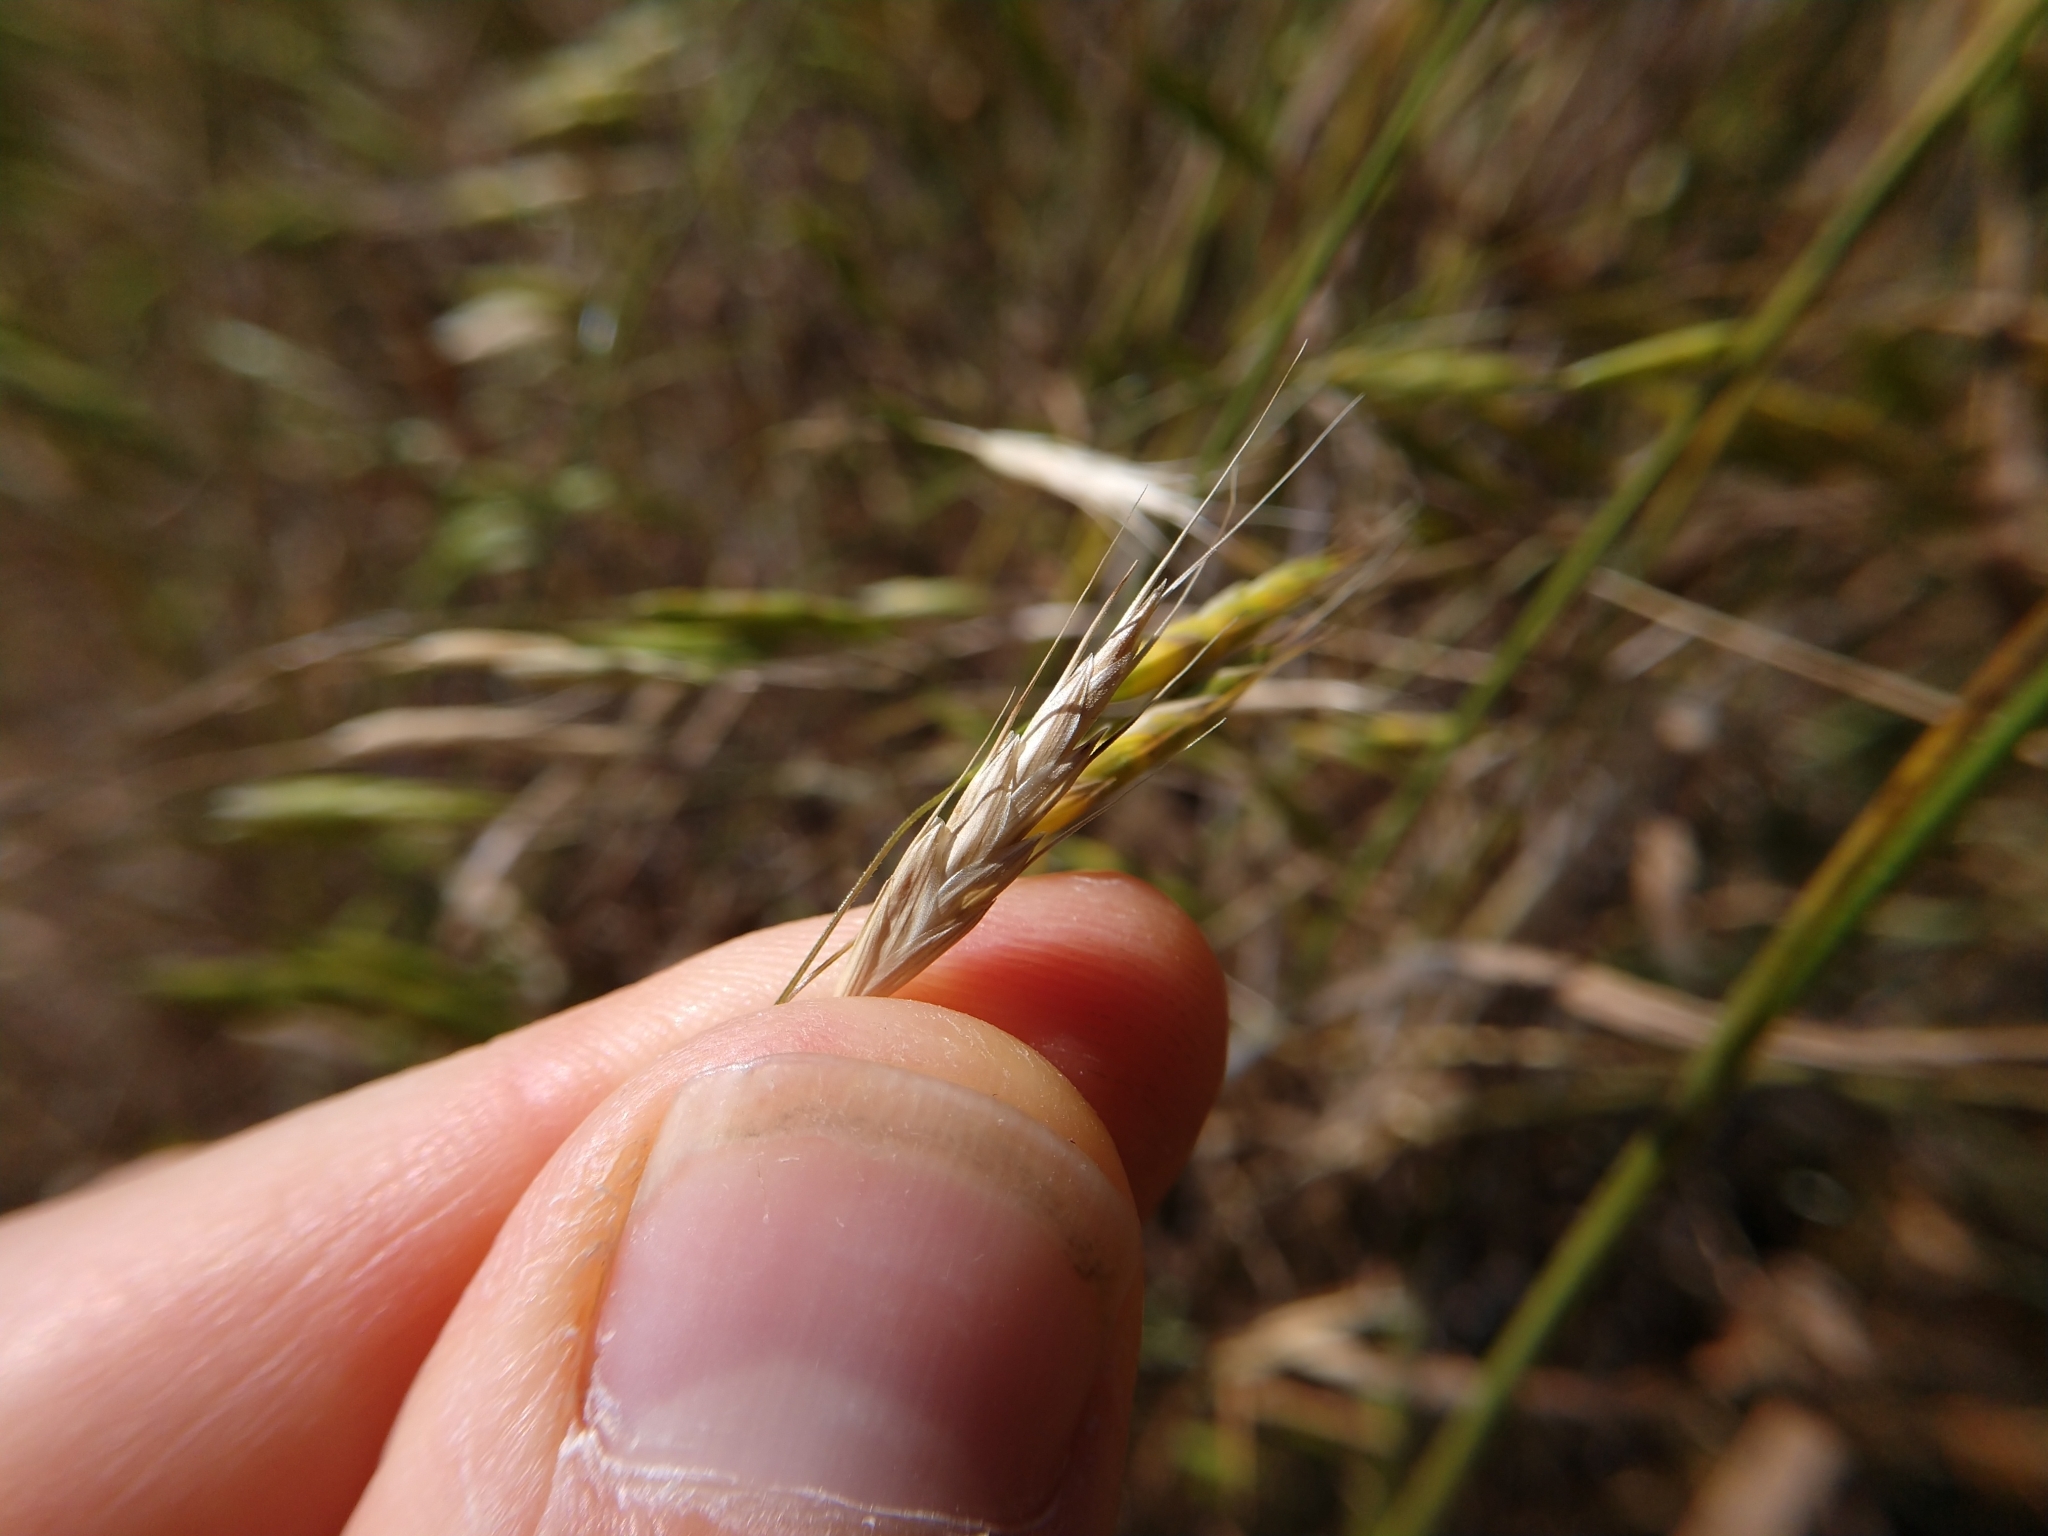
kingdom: Plantae
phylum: Tracheophyta
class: Liliopsida
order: Poales
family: Poaceae
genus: Bromus
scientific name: Bromus japonicus
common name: Japanese brome
